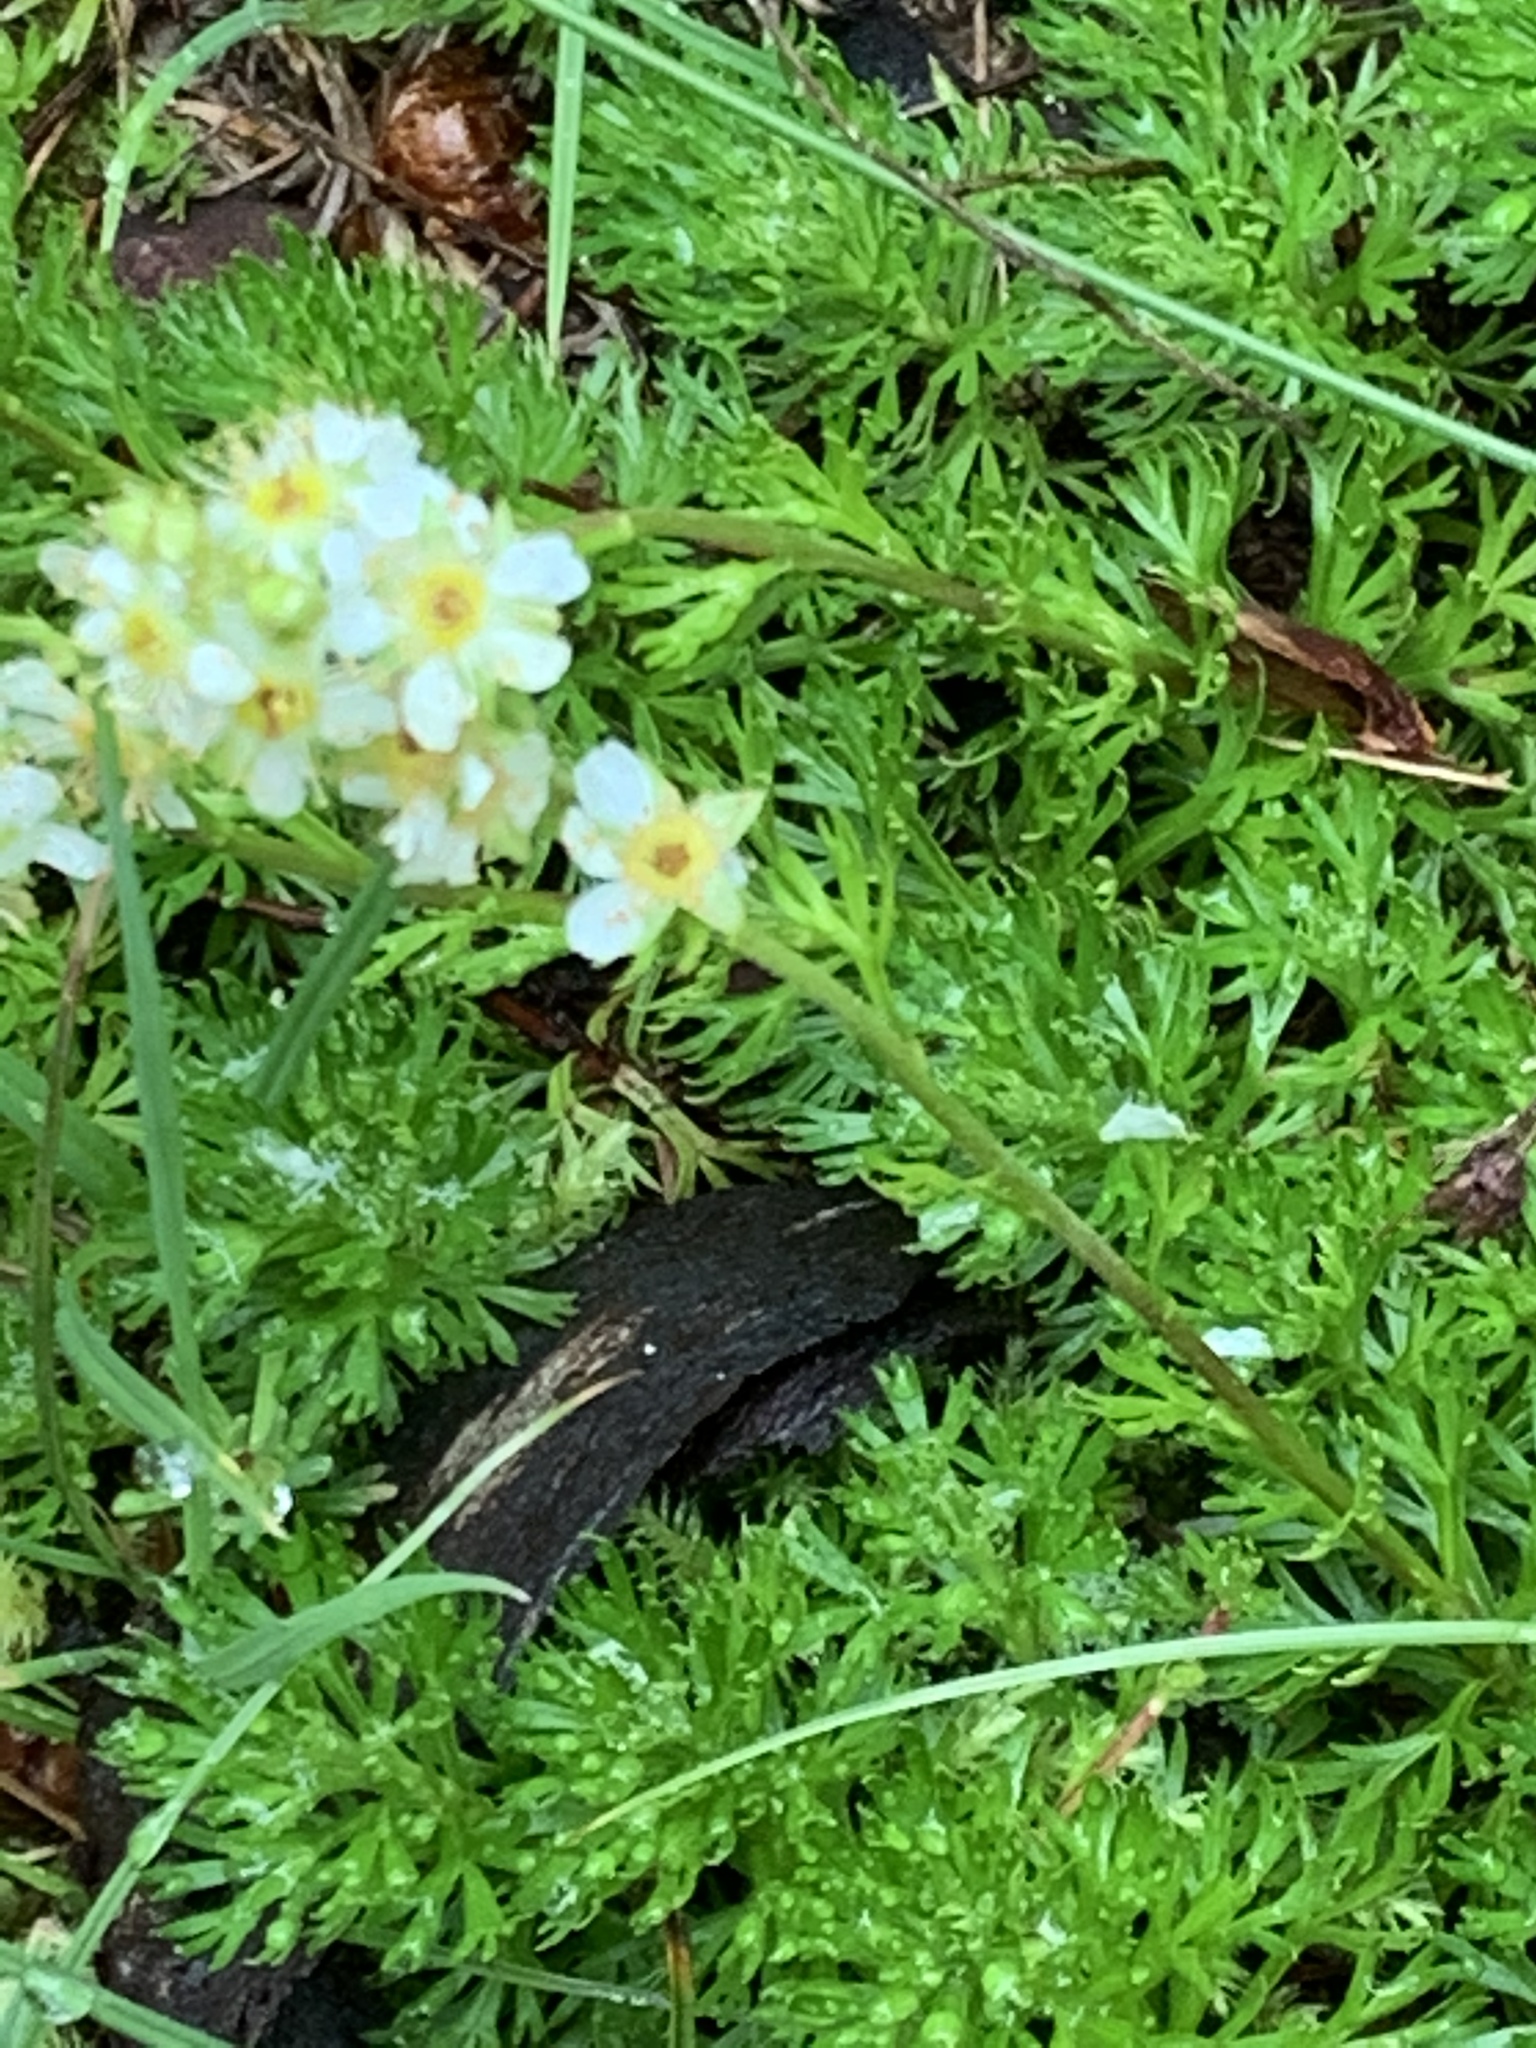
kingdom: Plantae
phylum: Tracheophyta
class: Magnoliopsida
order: Rosales
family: Rosaceae
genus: Luetkea
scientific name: Luetkea pectinata
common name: Partridgefoot
